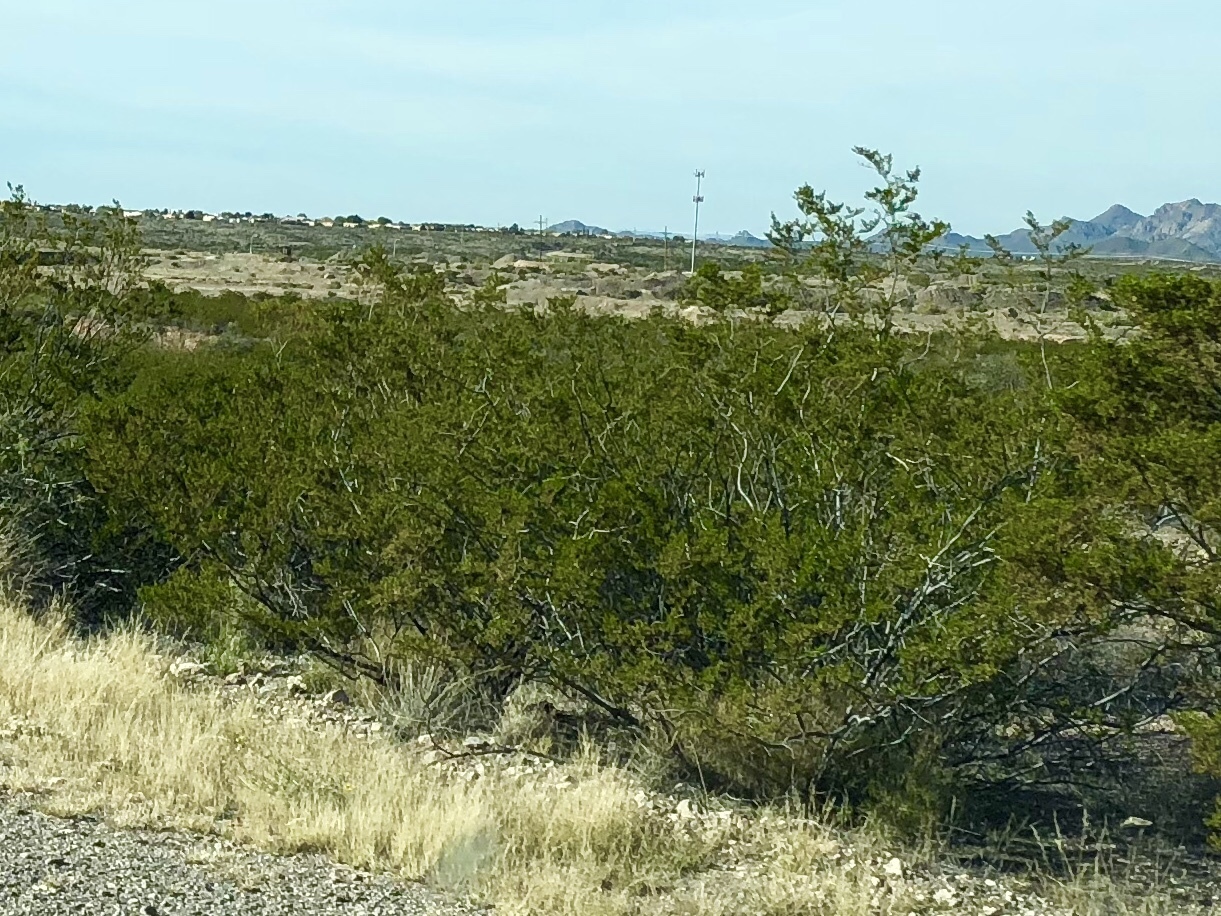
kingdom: Plantae
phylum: Tracheophyta
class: Magnoliopsida
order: Zygophyllales
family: Zygophyllaceae
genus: Larrea
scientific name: Larrea tridentata
